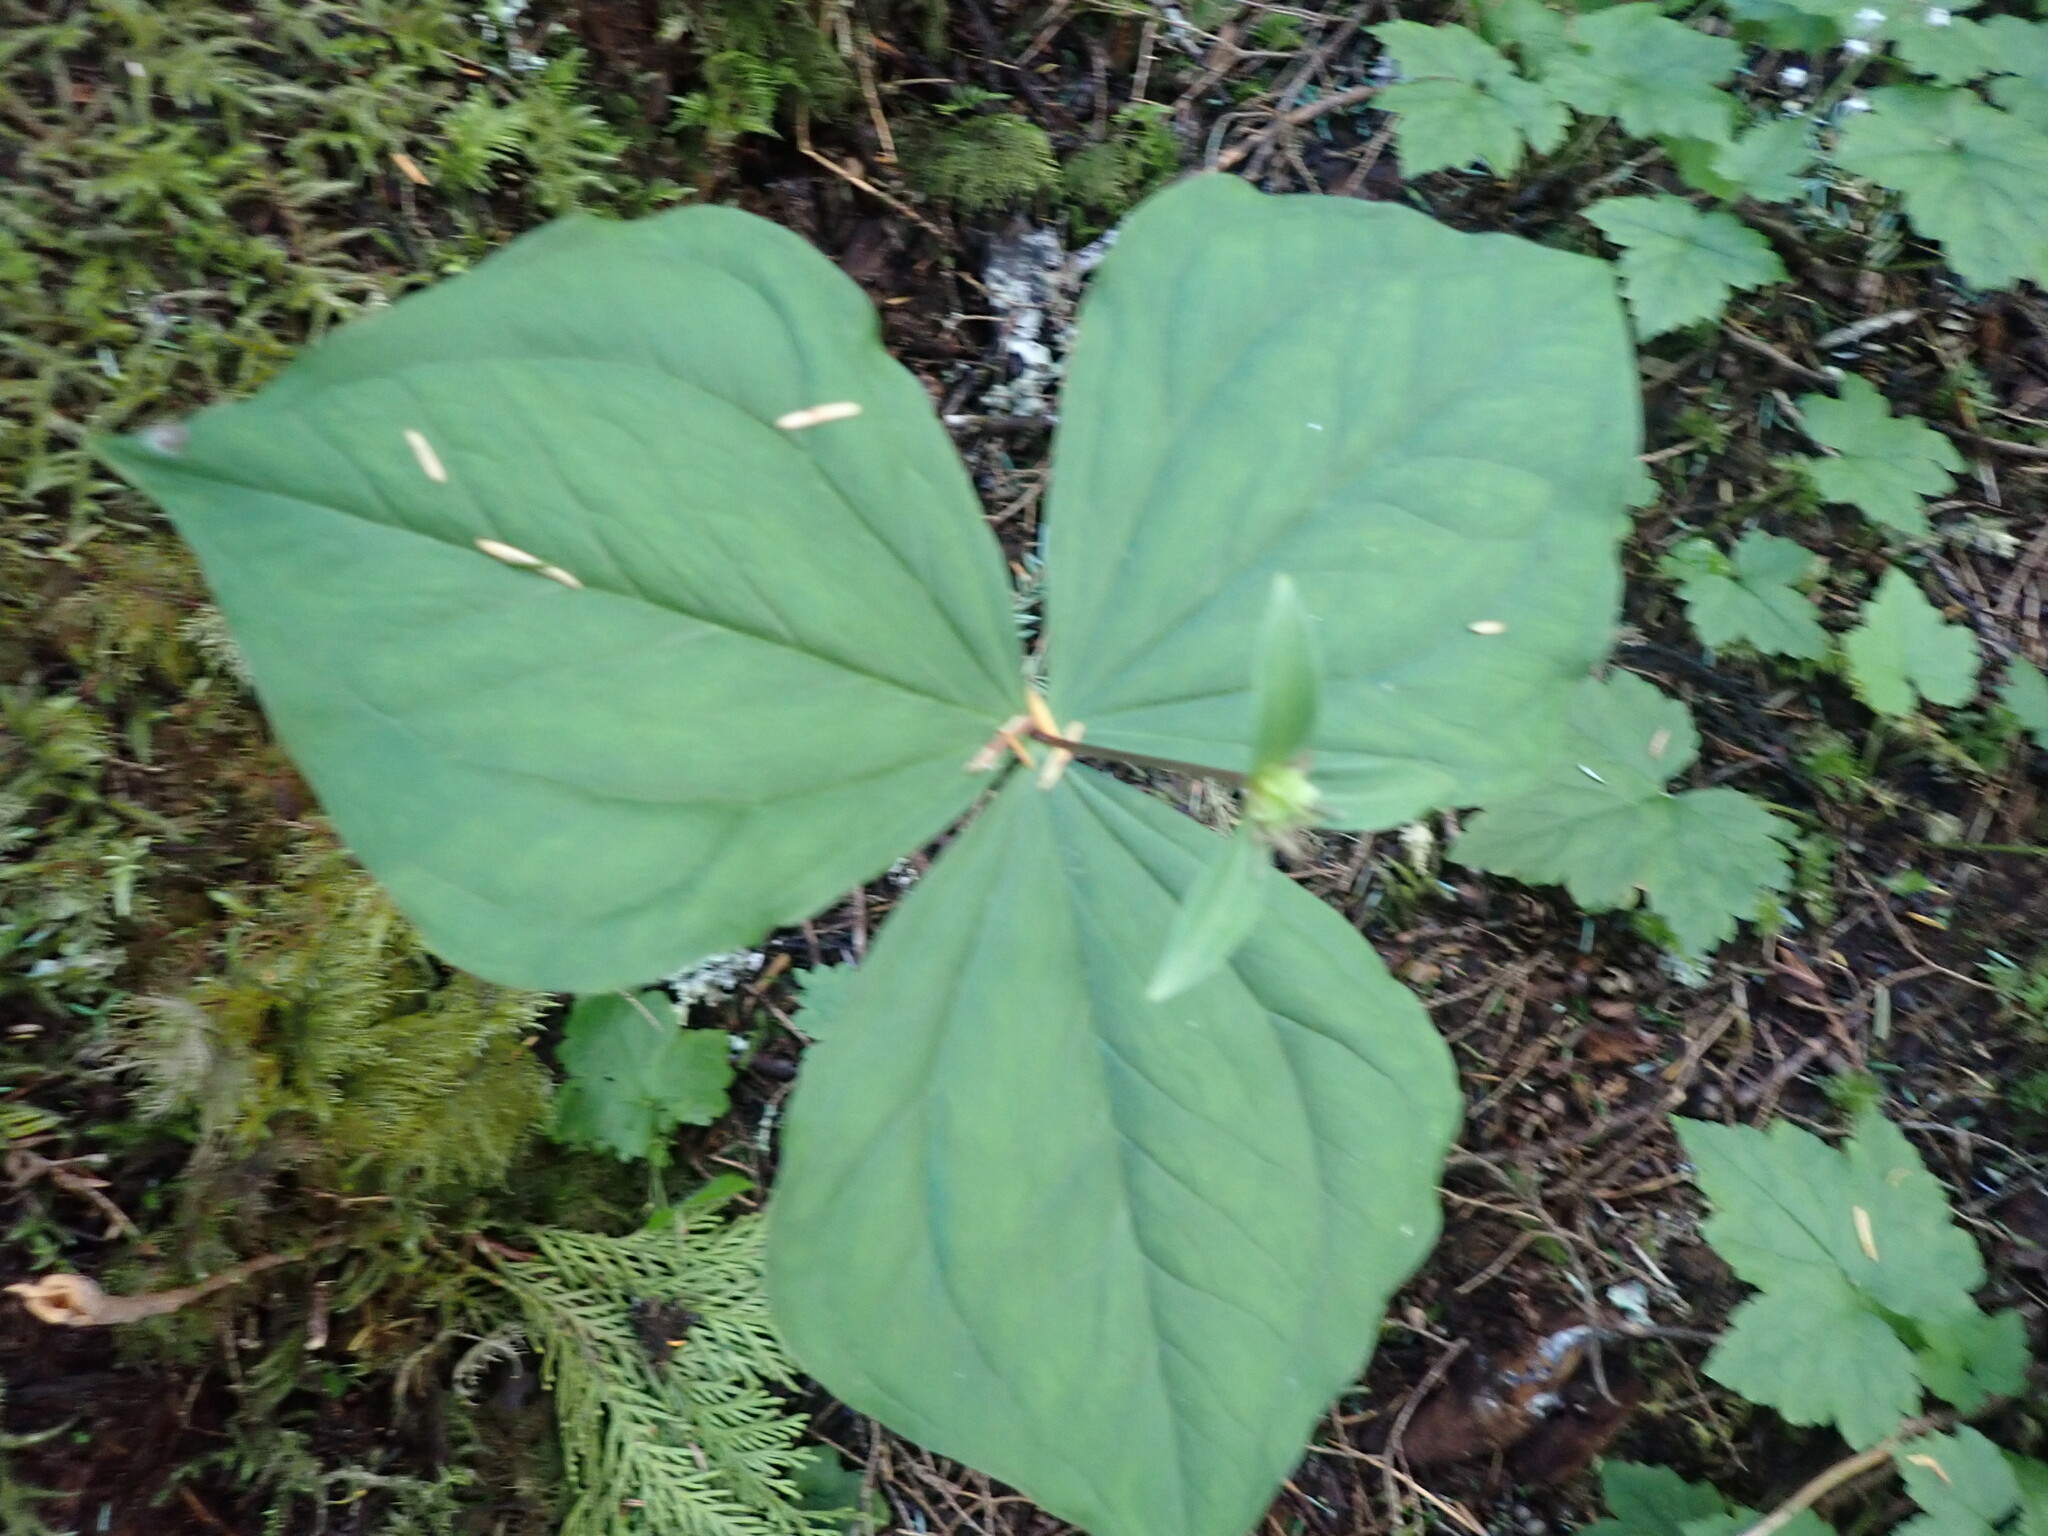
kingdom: Plantae
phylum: Tracheophyta
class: Liliopsida
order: Liliales
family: Melanthiaceae
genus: Trillium
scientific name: Trillium ovatum
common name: Pacific trillium
